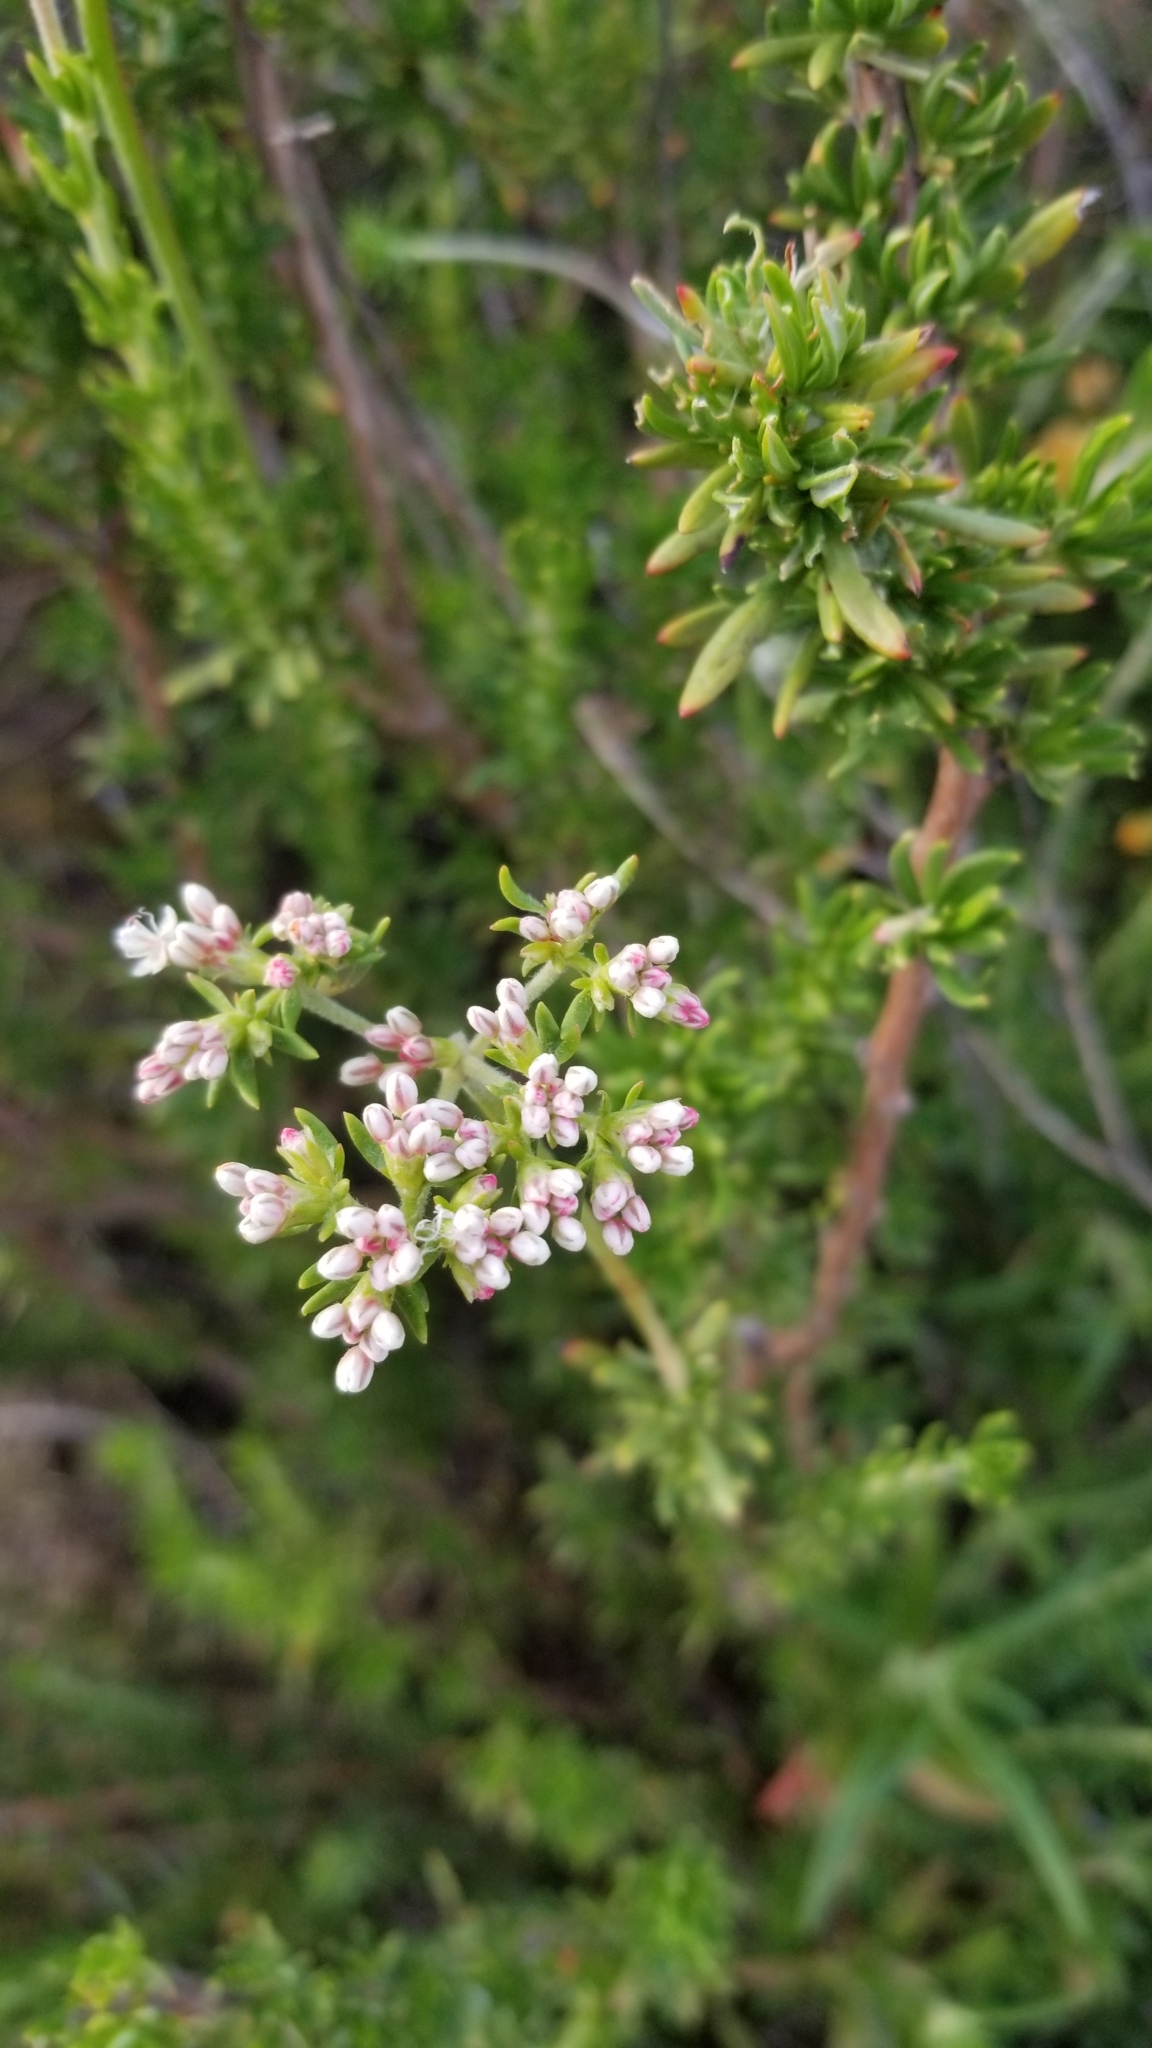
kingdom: Plantae
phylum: Tracheophyta
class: Magnoliopsida
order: Caryophyllales
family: Polygonaceae
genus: Eriogonum
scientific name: Eriogonum fasciculatum
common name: California wild buckwheat
